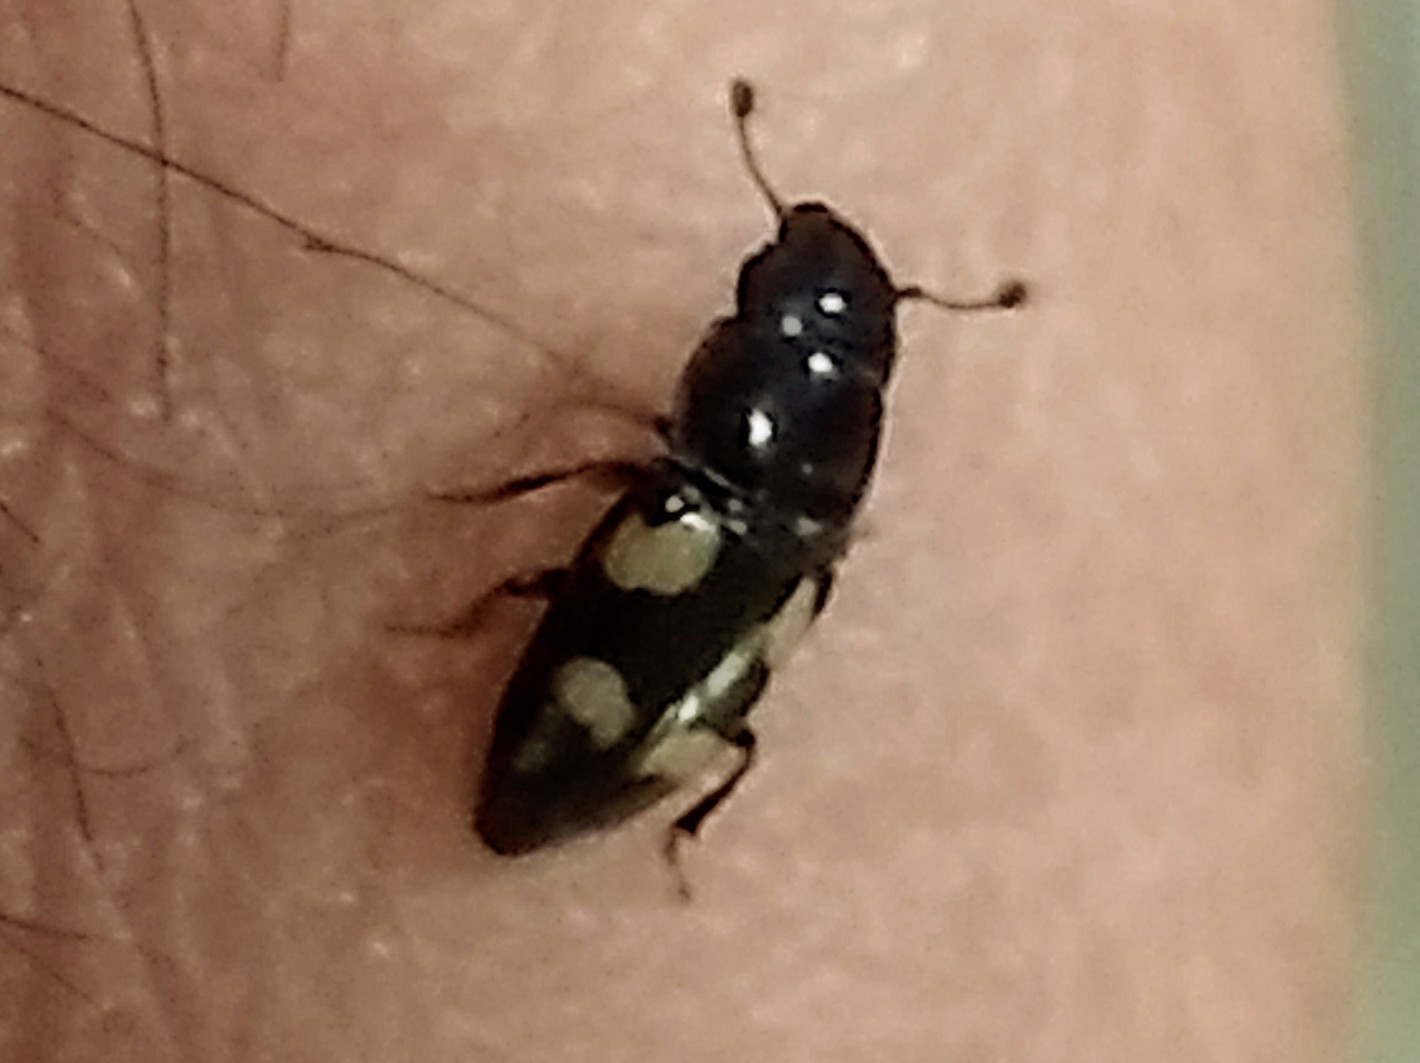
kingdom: Animalia
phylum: Arthropoda
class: Insecta
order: Coleoptera
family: Nitidulidae
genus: Glischrochilus
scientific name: Glischrochilus quadrisignatus
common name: Picnic beetle
